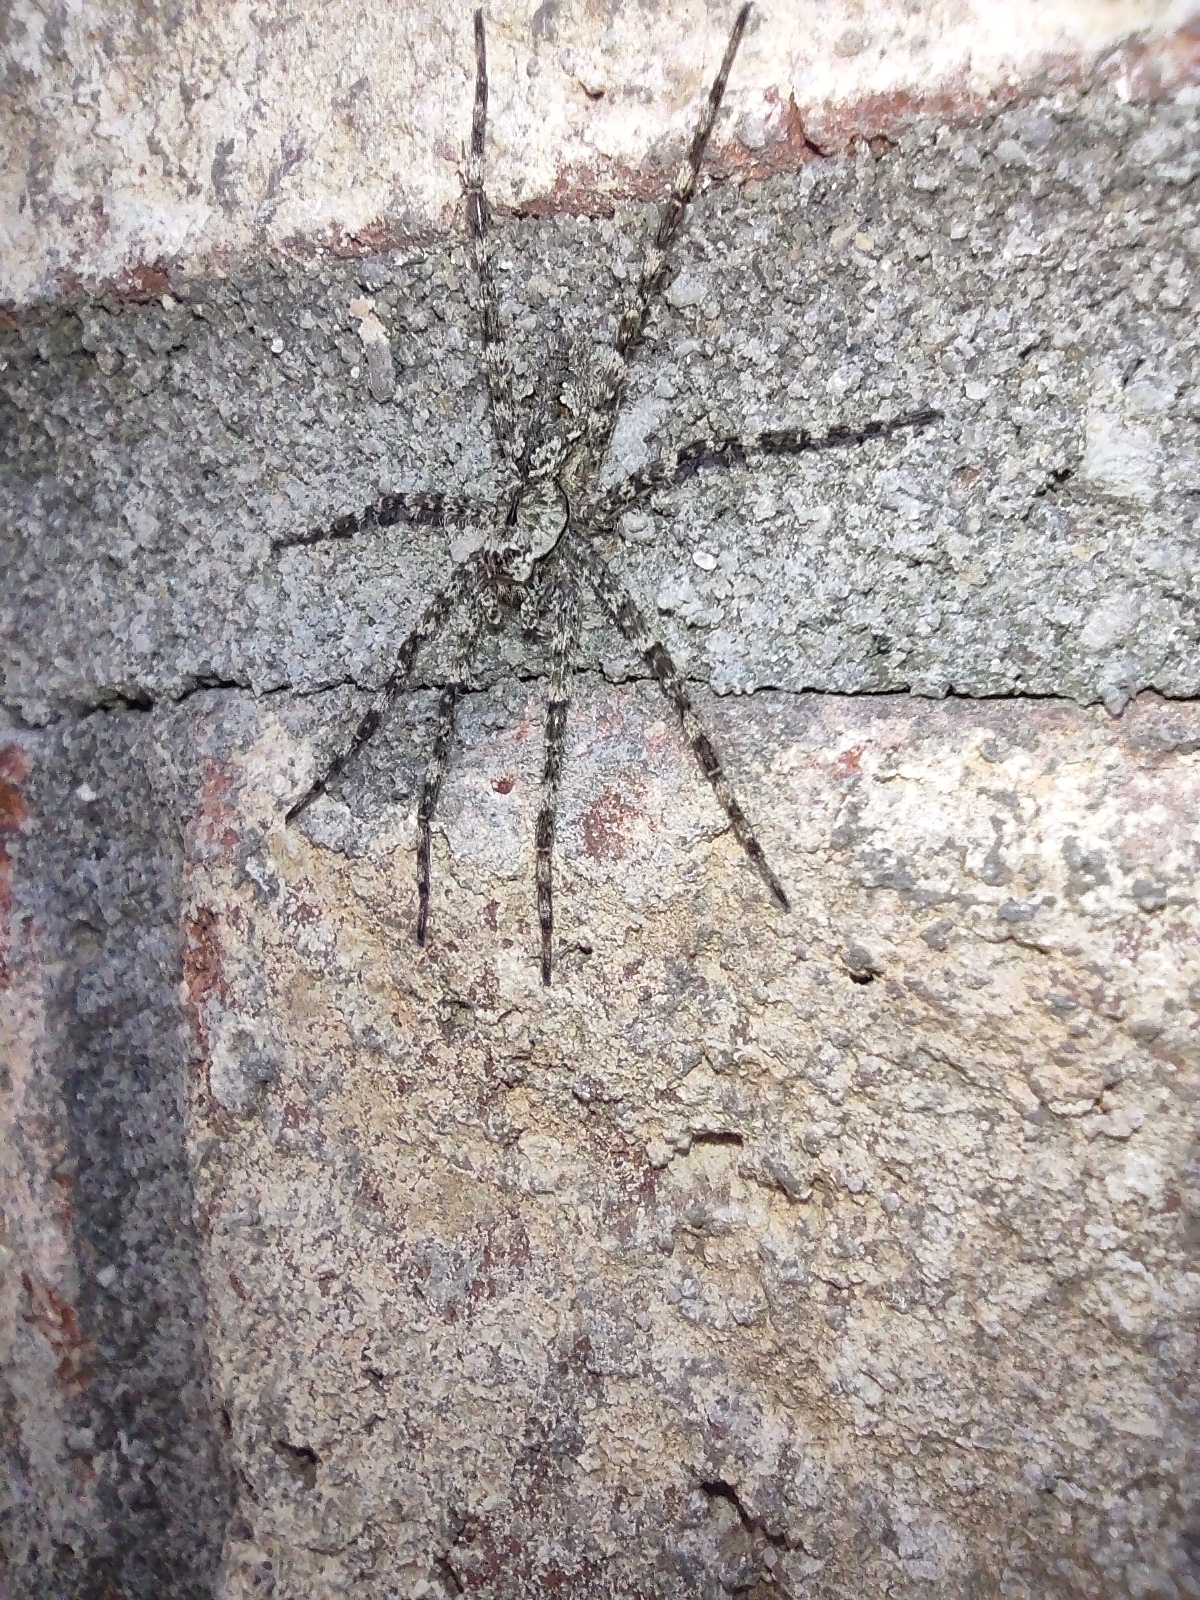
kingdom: Animalia
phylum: Arthropoda
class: Arachnida
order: Araneae
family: Pisauridae
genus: Dolomedes
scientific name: Dolomedes albineus
